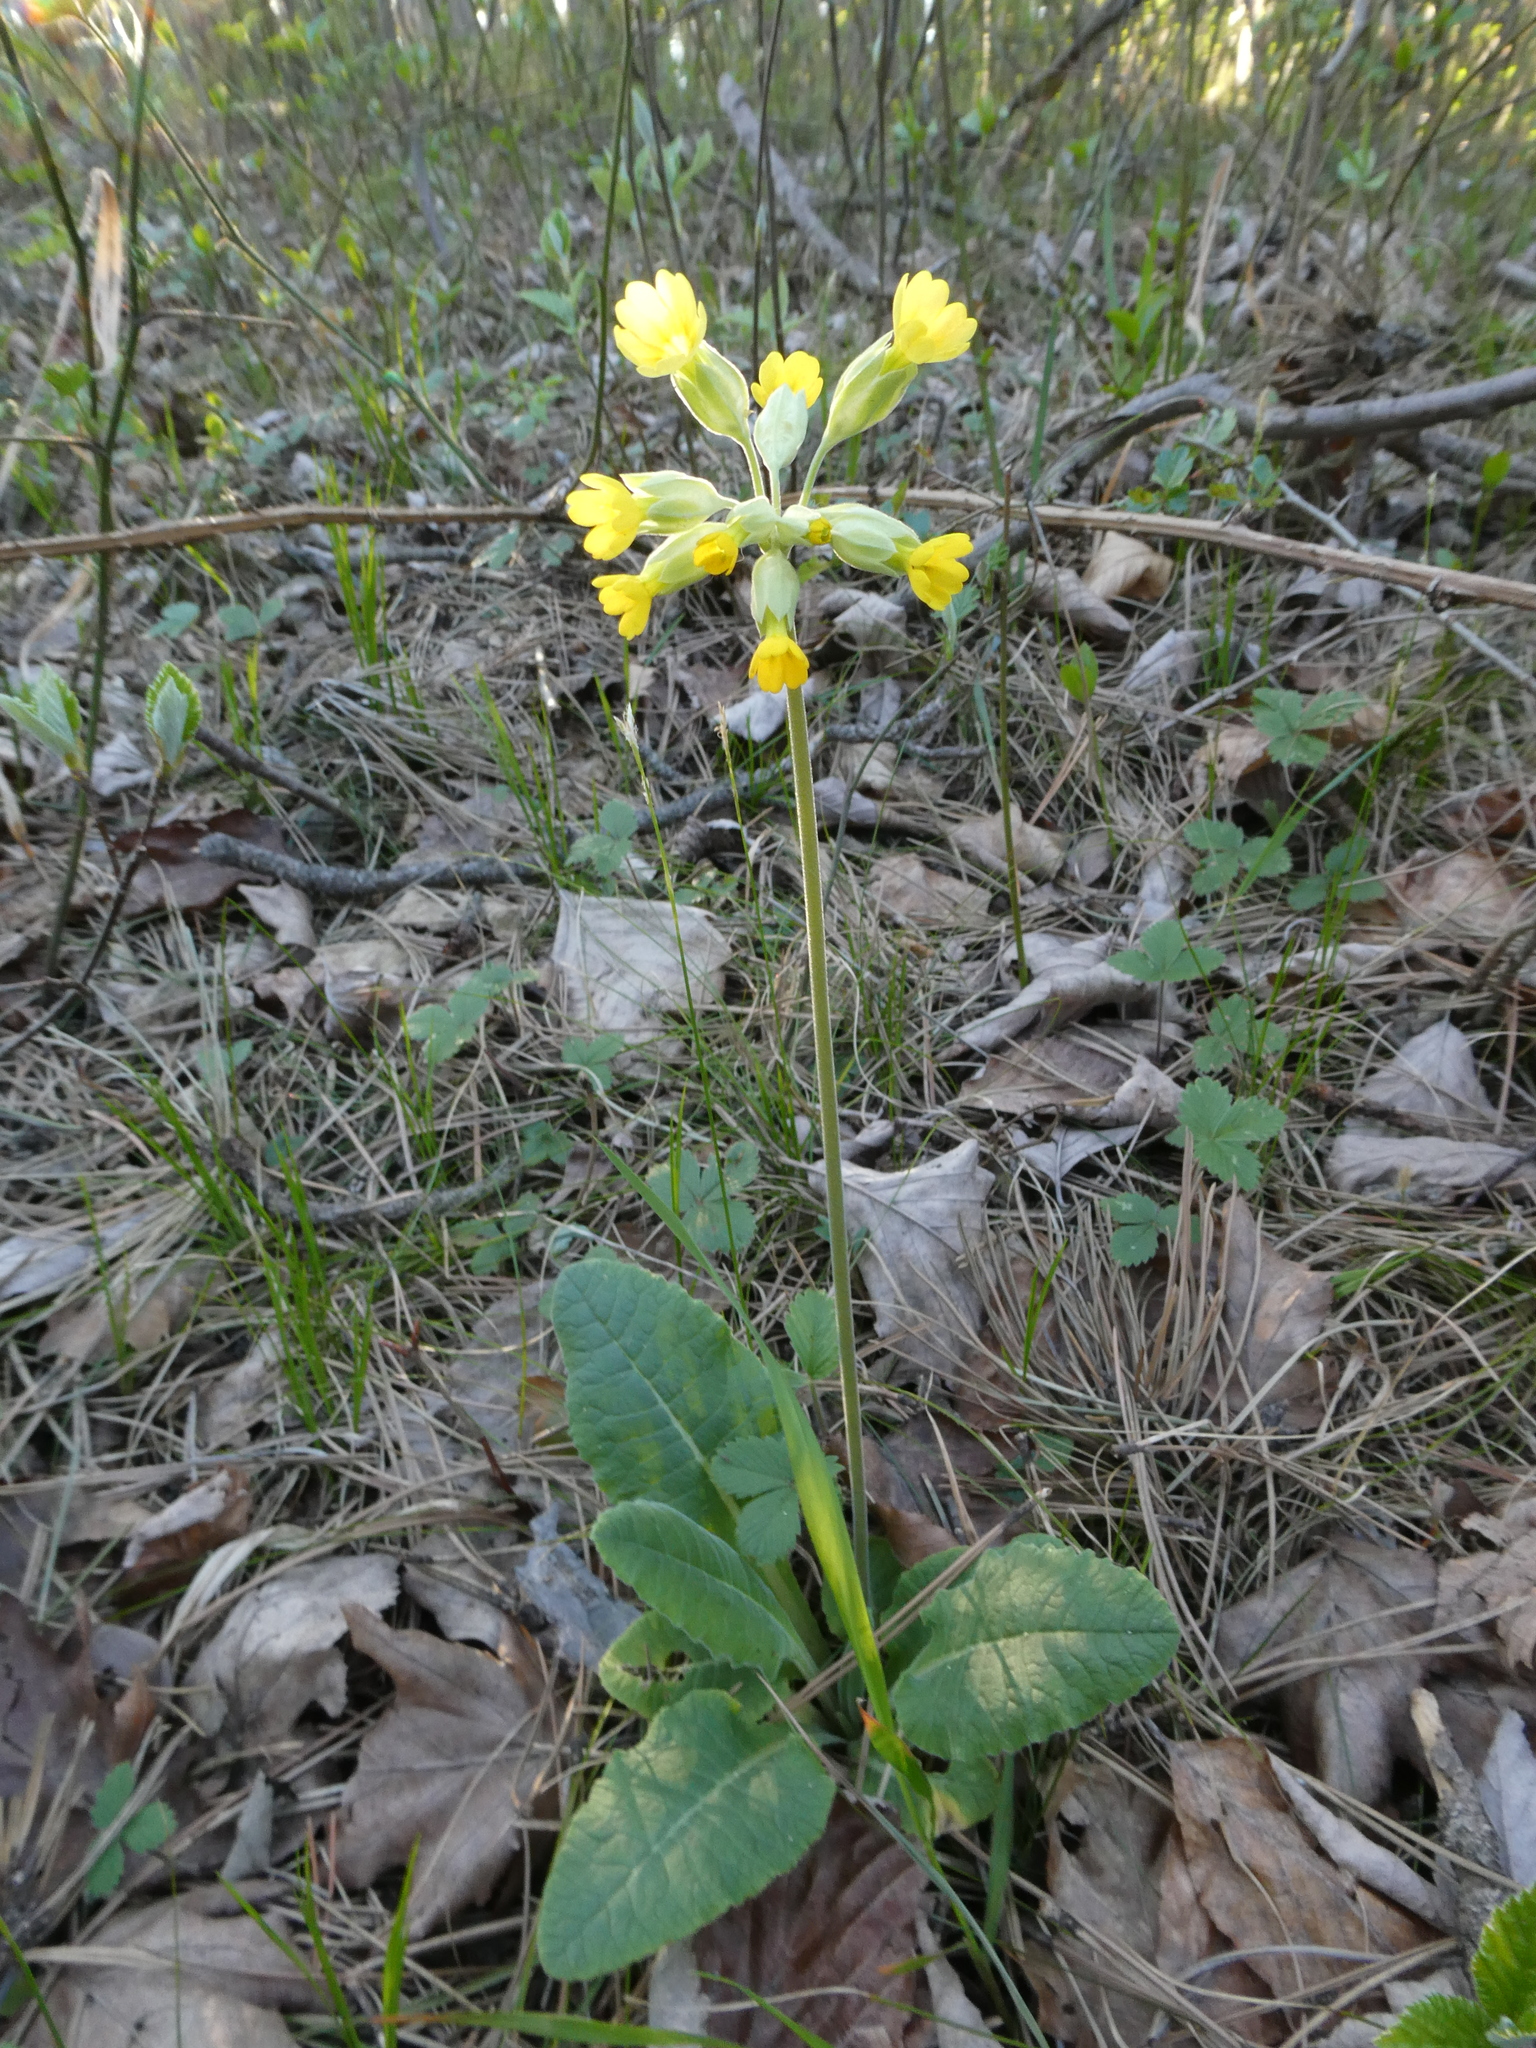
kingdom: Plantae
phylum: Tracheophyta
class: Magnoliopsida
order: Ericales
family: Primulaceae
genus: Primula
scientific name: Primula veris
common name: Cowslip
